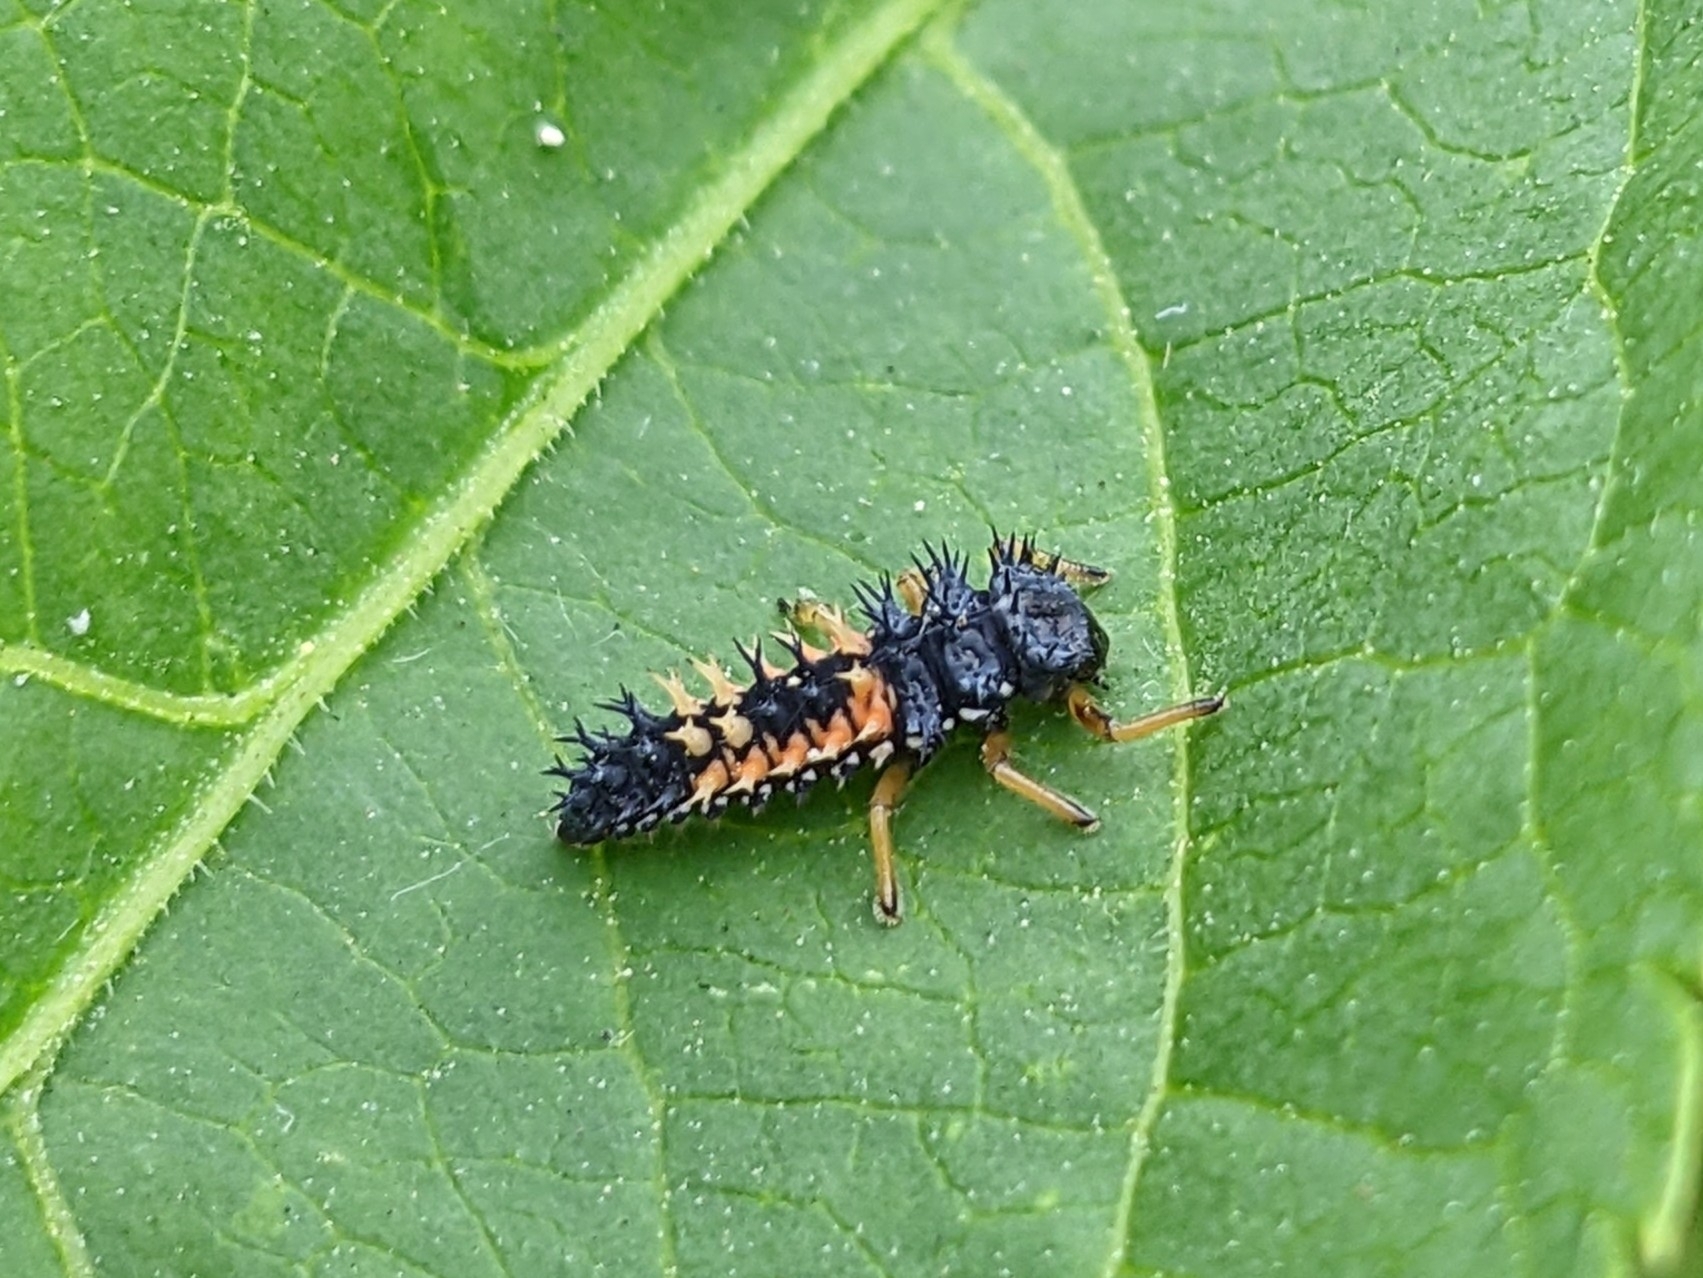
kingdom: Animalia
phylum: Arthropoda
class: Insecta
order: Coleoptera
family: Coccinellidae
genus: Harmonia
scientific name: Harmonia axyridis
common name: Harlequin ladybird
